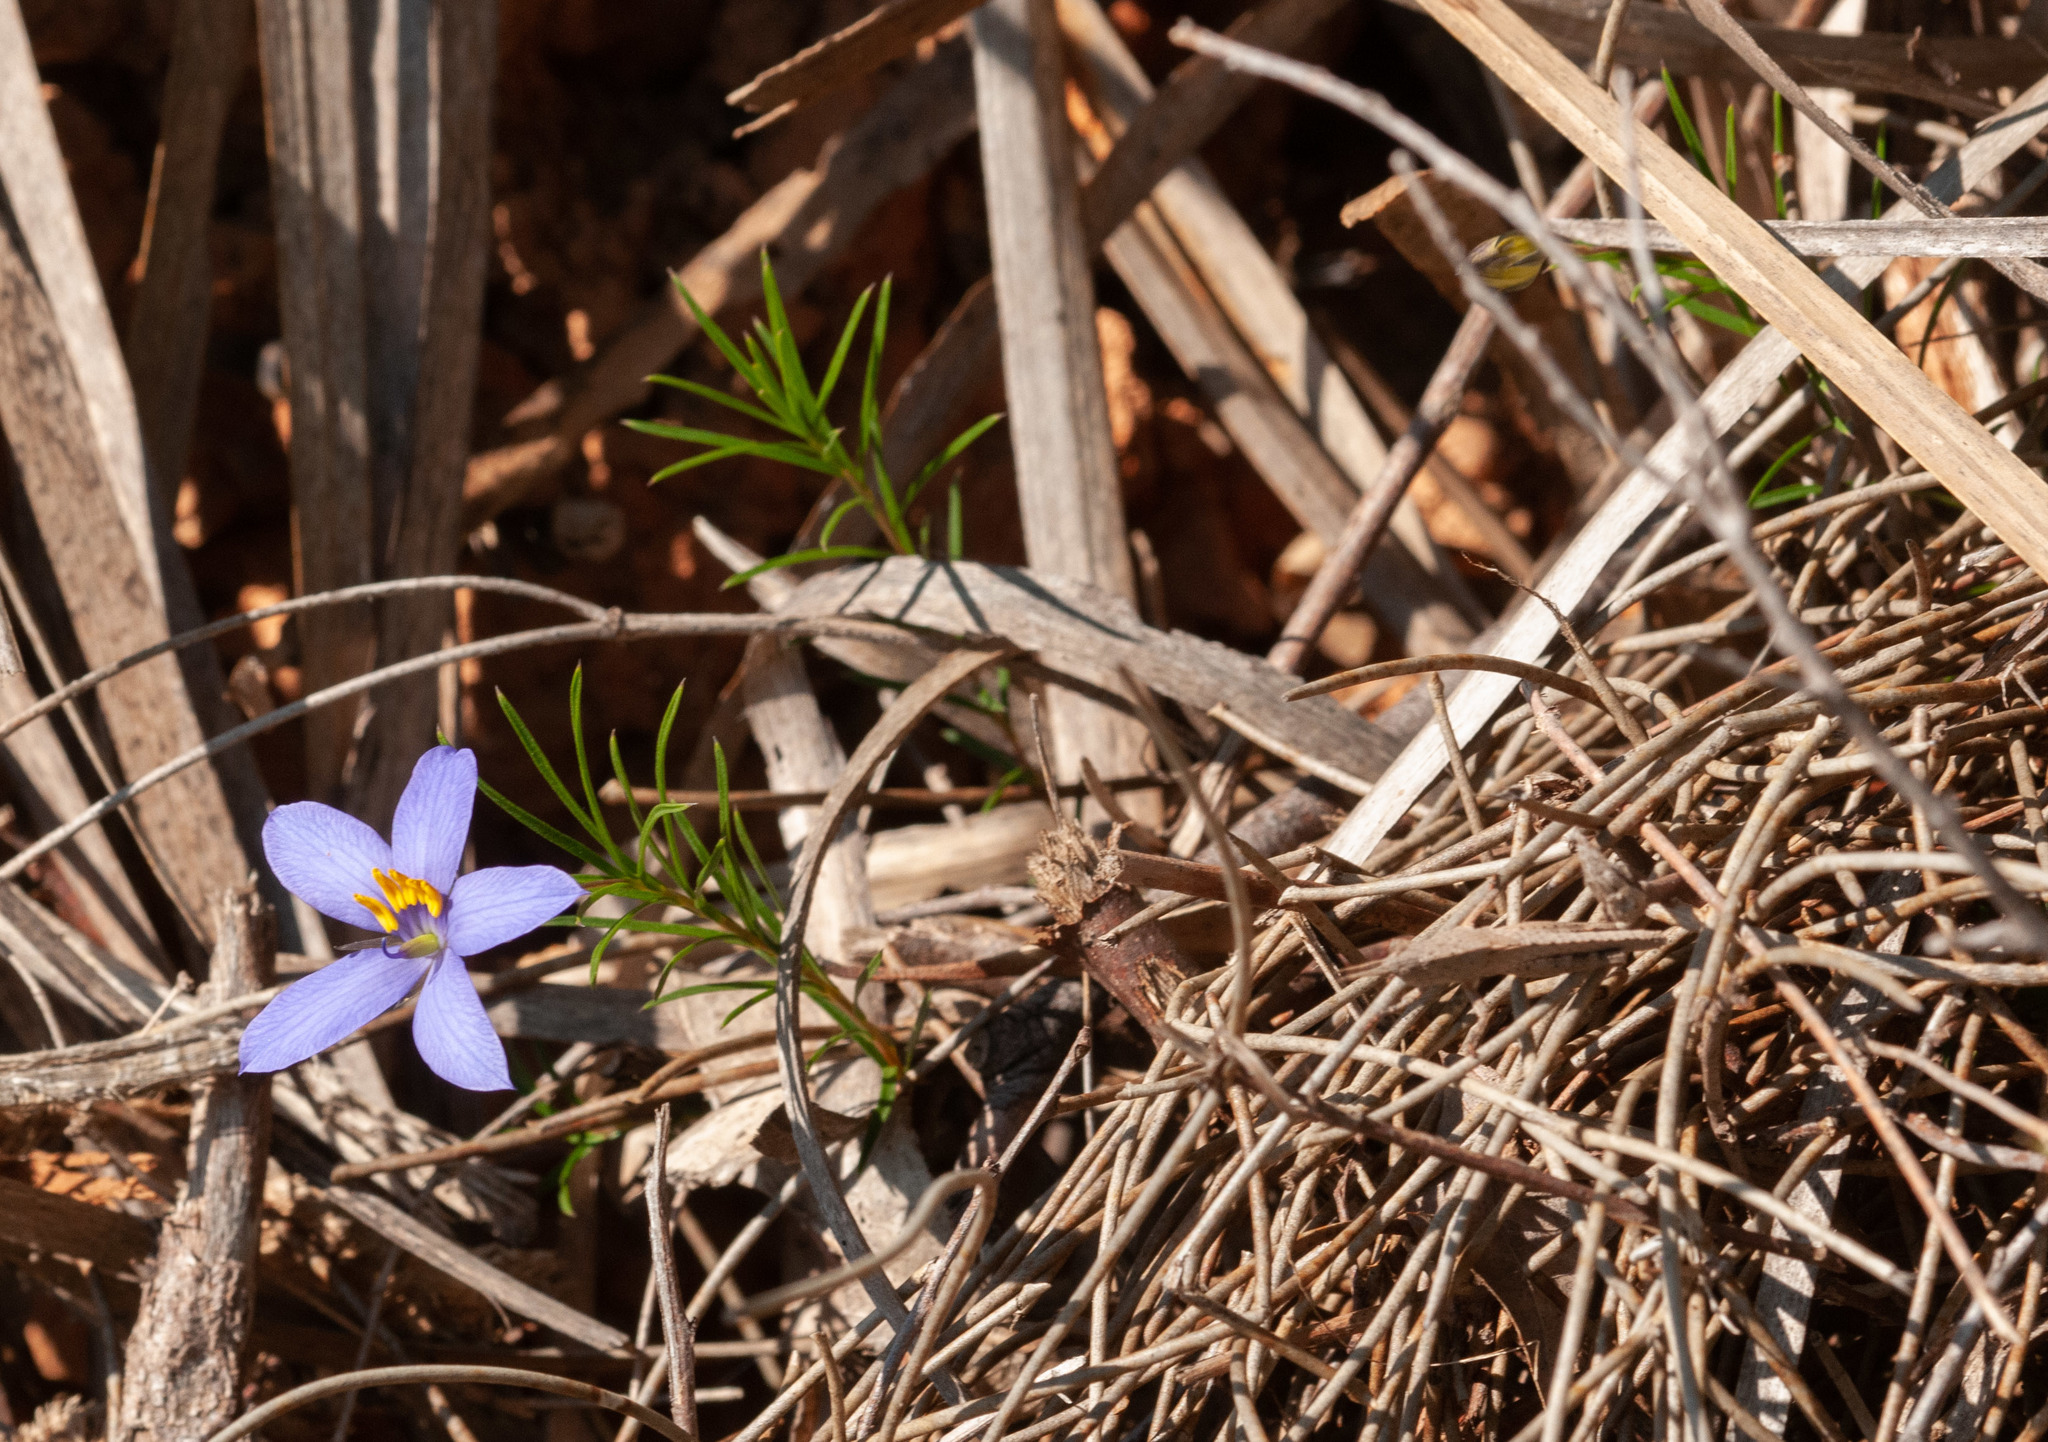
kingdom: Plantae
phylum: Tracheophyta
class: Magnoliopsida
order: Apiales
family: Pittosporaceae
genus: Cheiranthera
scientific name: Cheiranthera alternifolia
